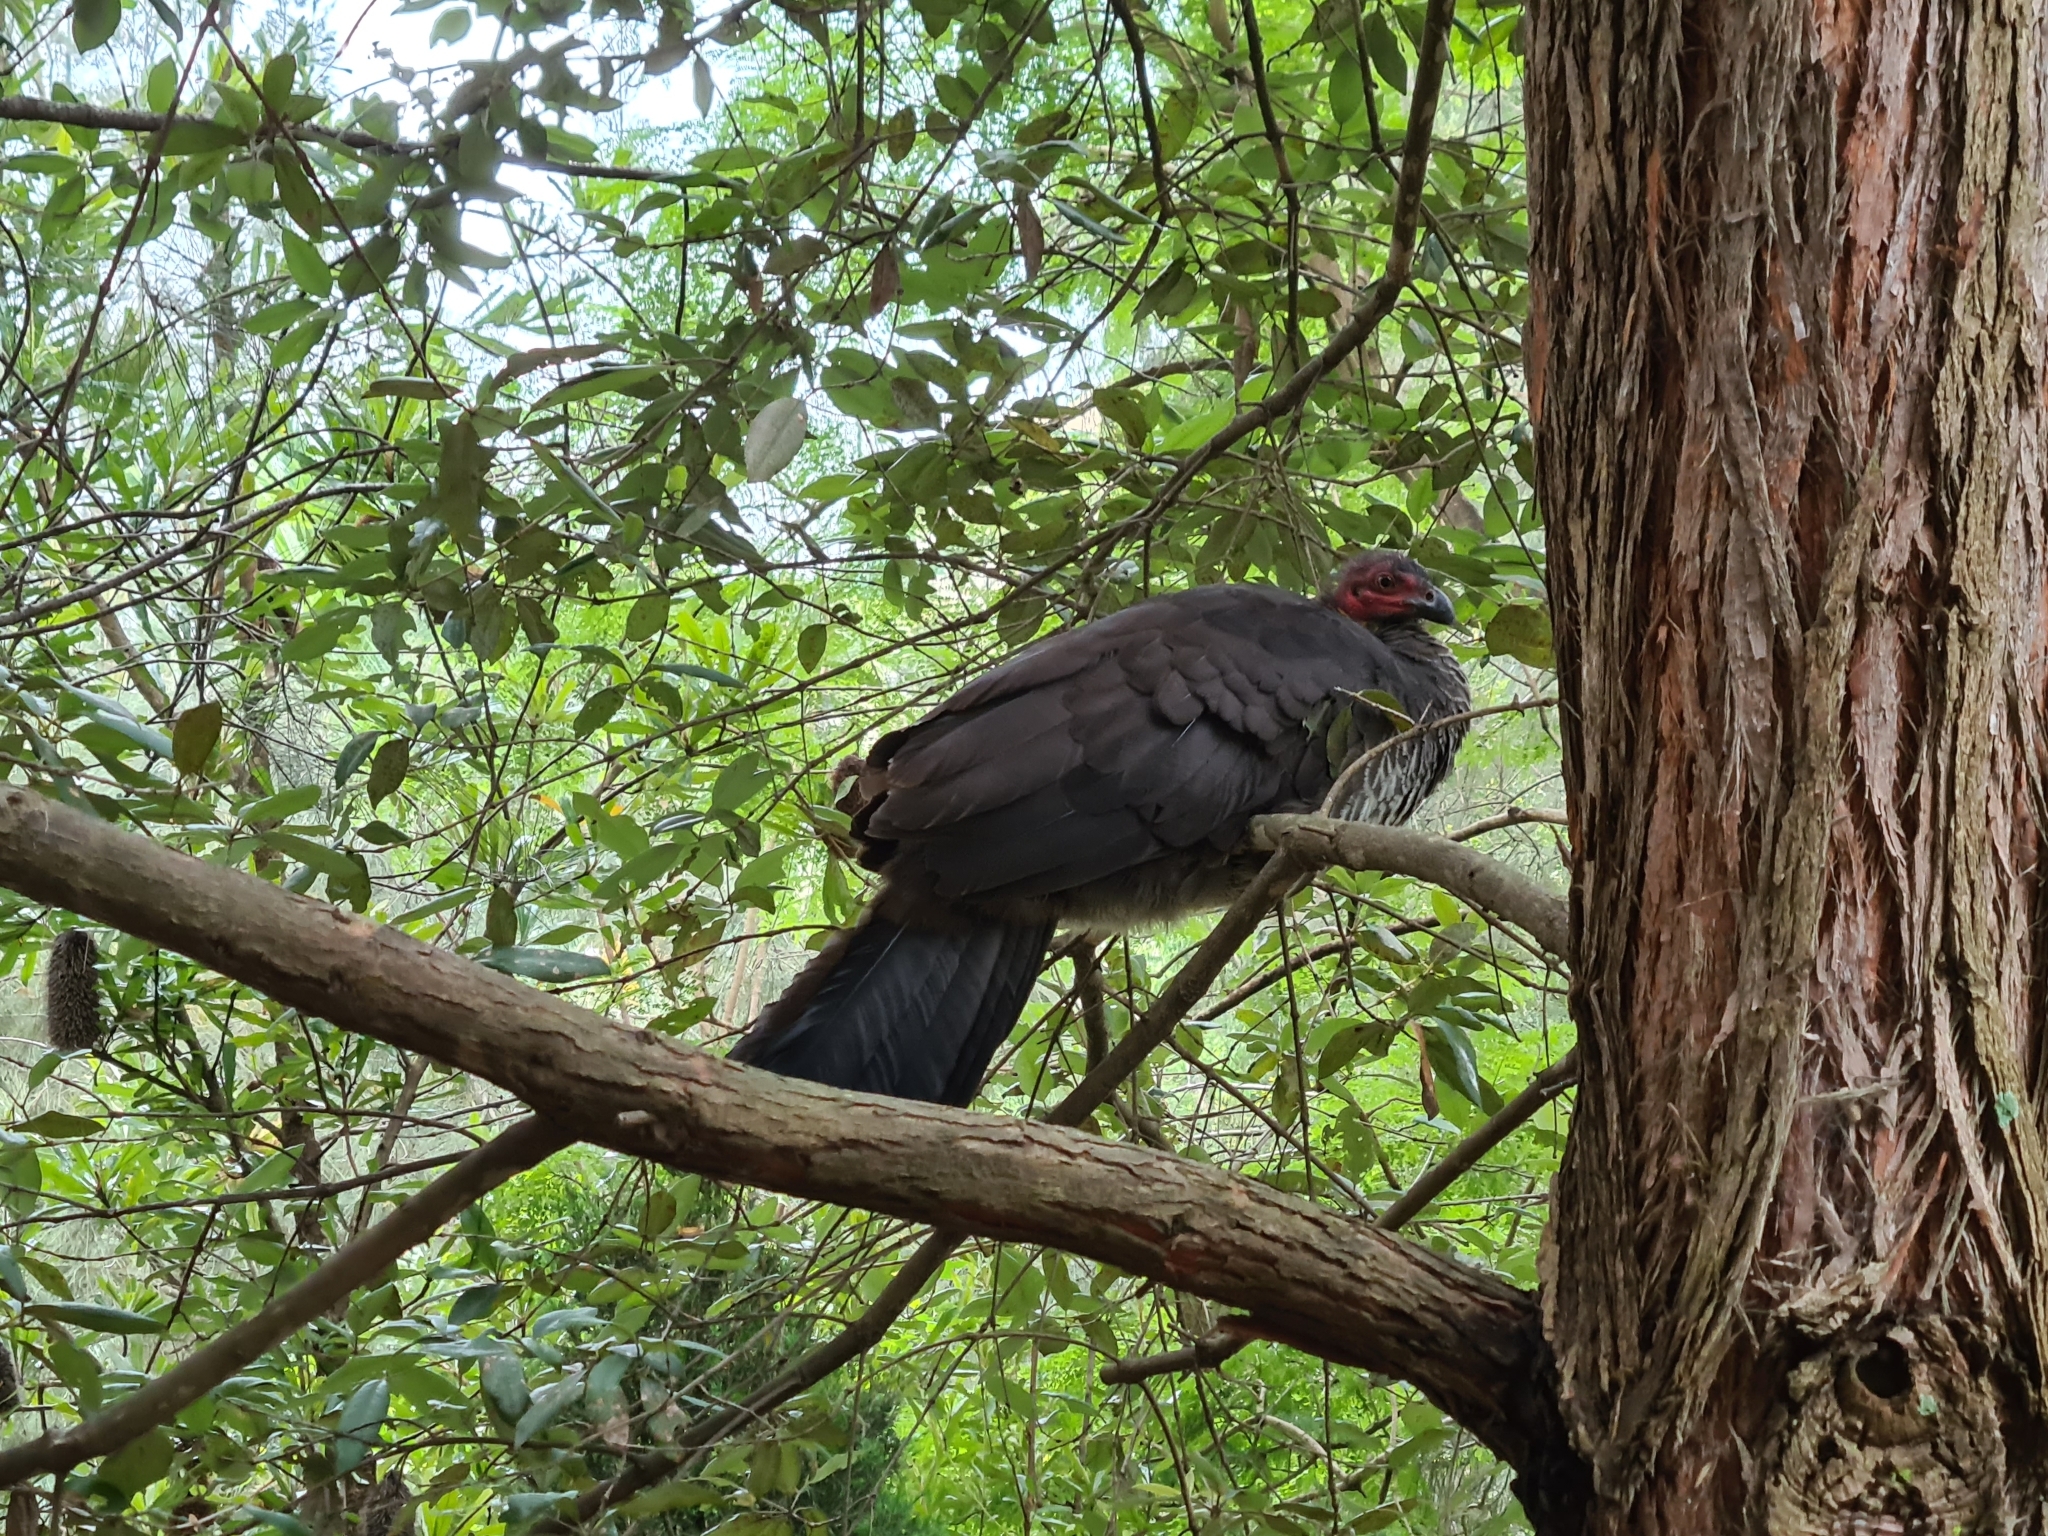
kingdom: Animalia
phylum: Chordata
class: Aves
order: Galliformes
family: Megapodiidae
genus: Alectura
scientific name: Alectura lathami
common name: Australian brushturkey
